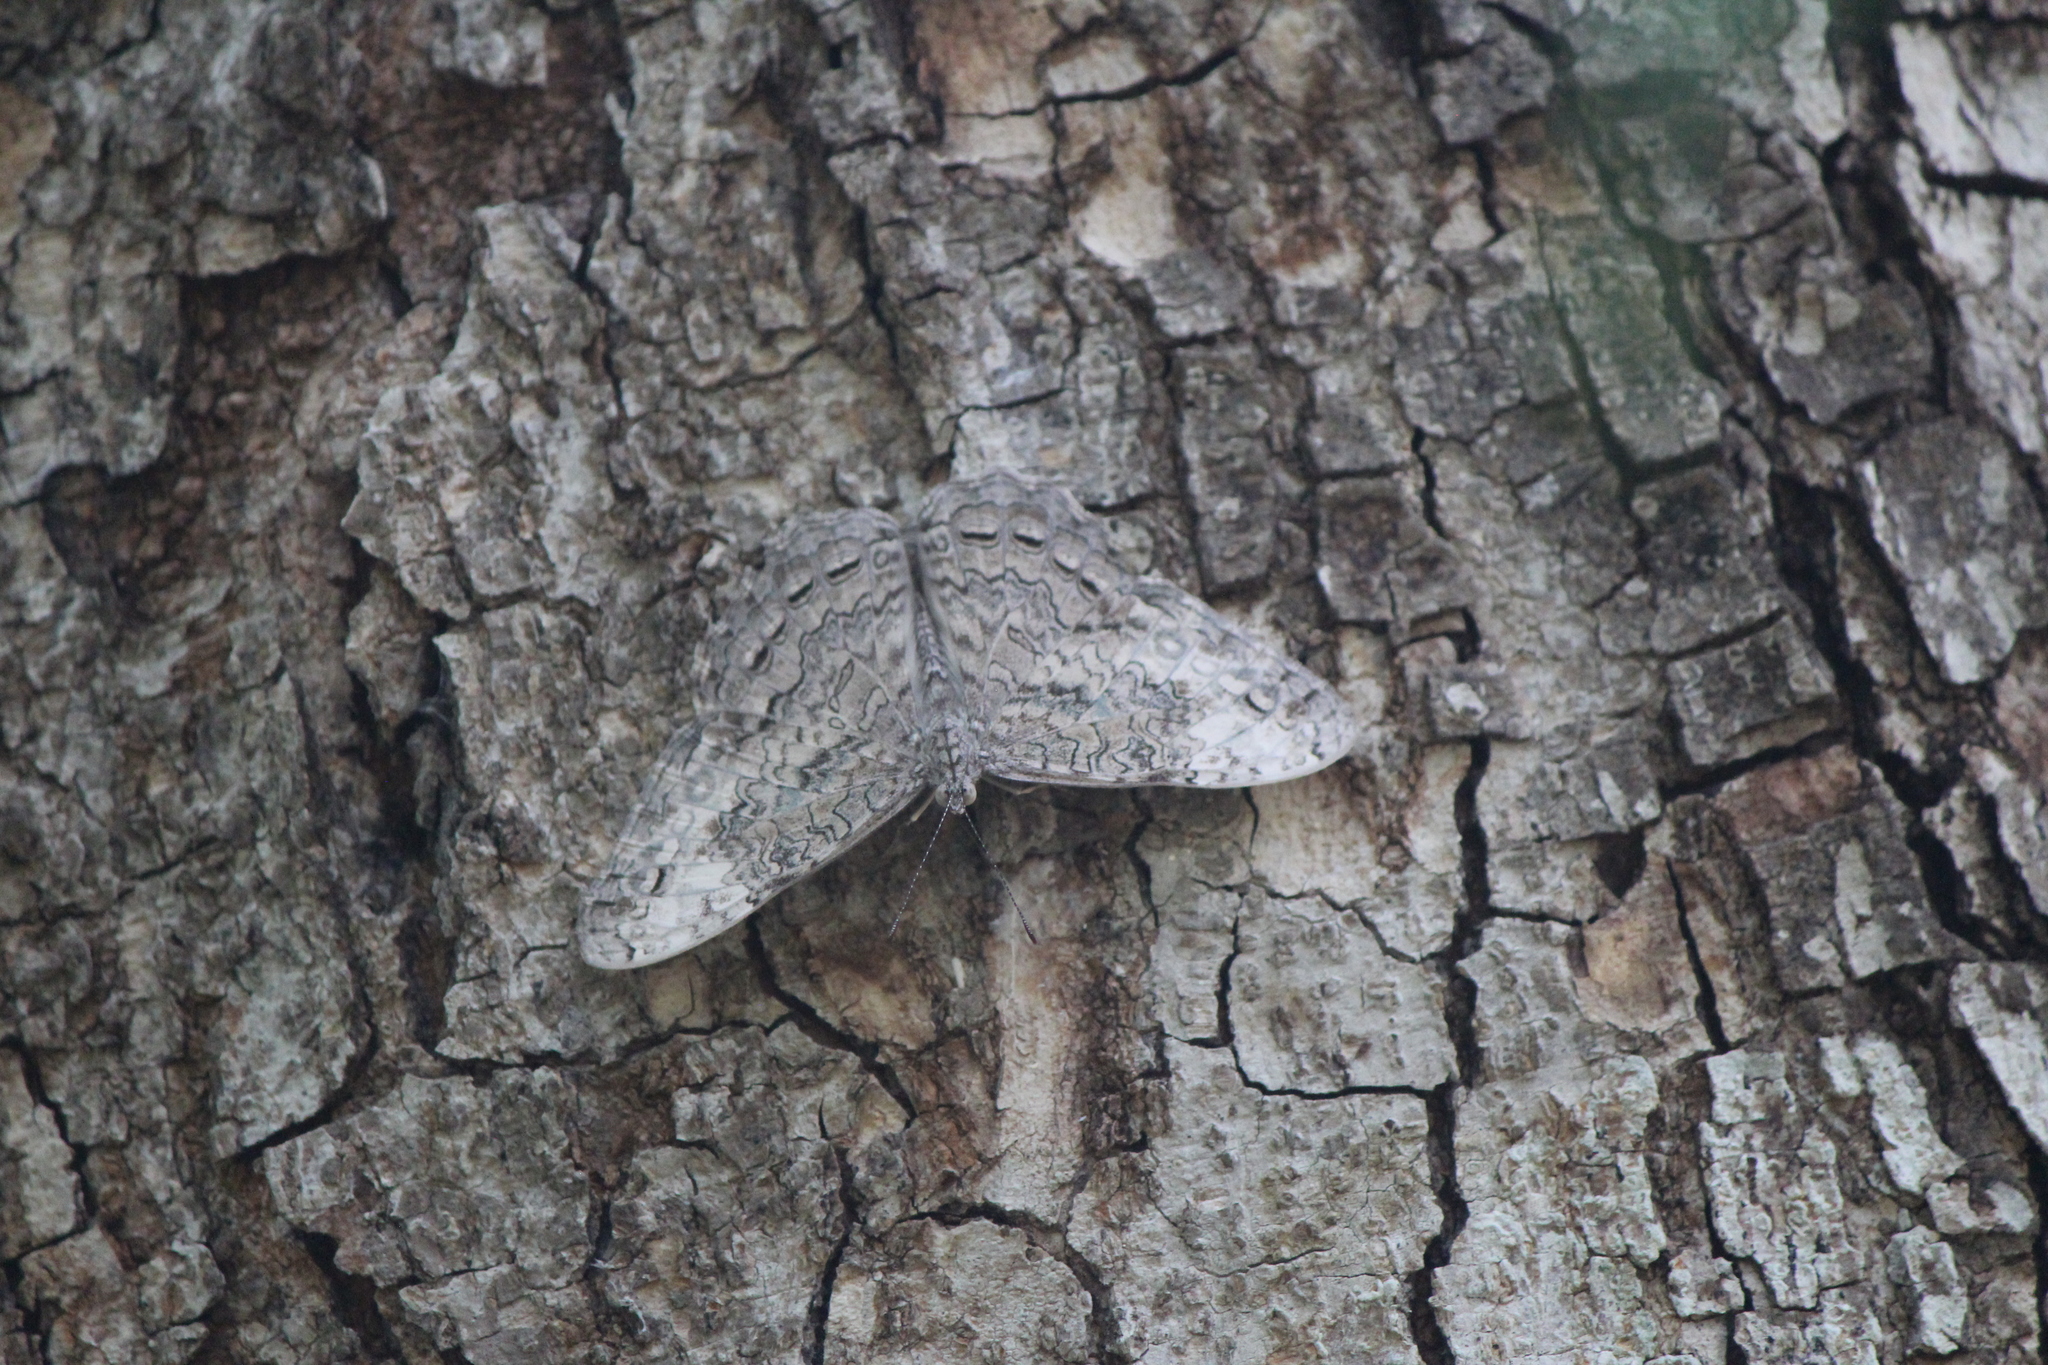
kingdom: Animalia
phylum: Arthropoda
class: Insecta
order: Lepidoptera
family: Nymphalidae
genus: Hamadryas
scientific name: Hamadryas glauconome
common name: Glaucous cracker
